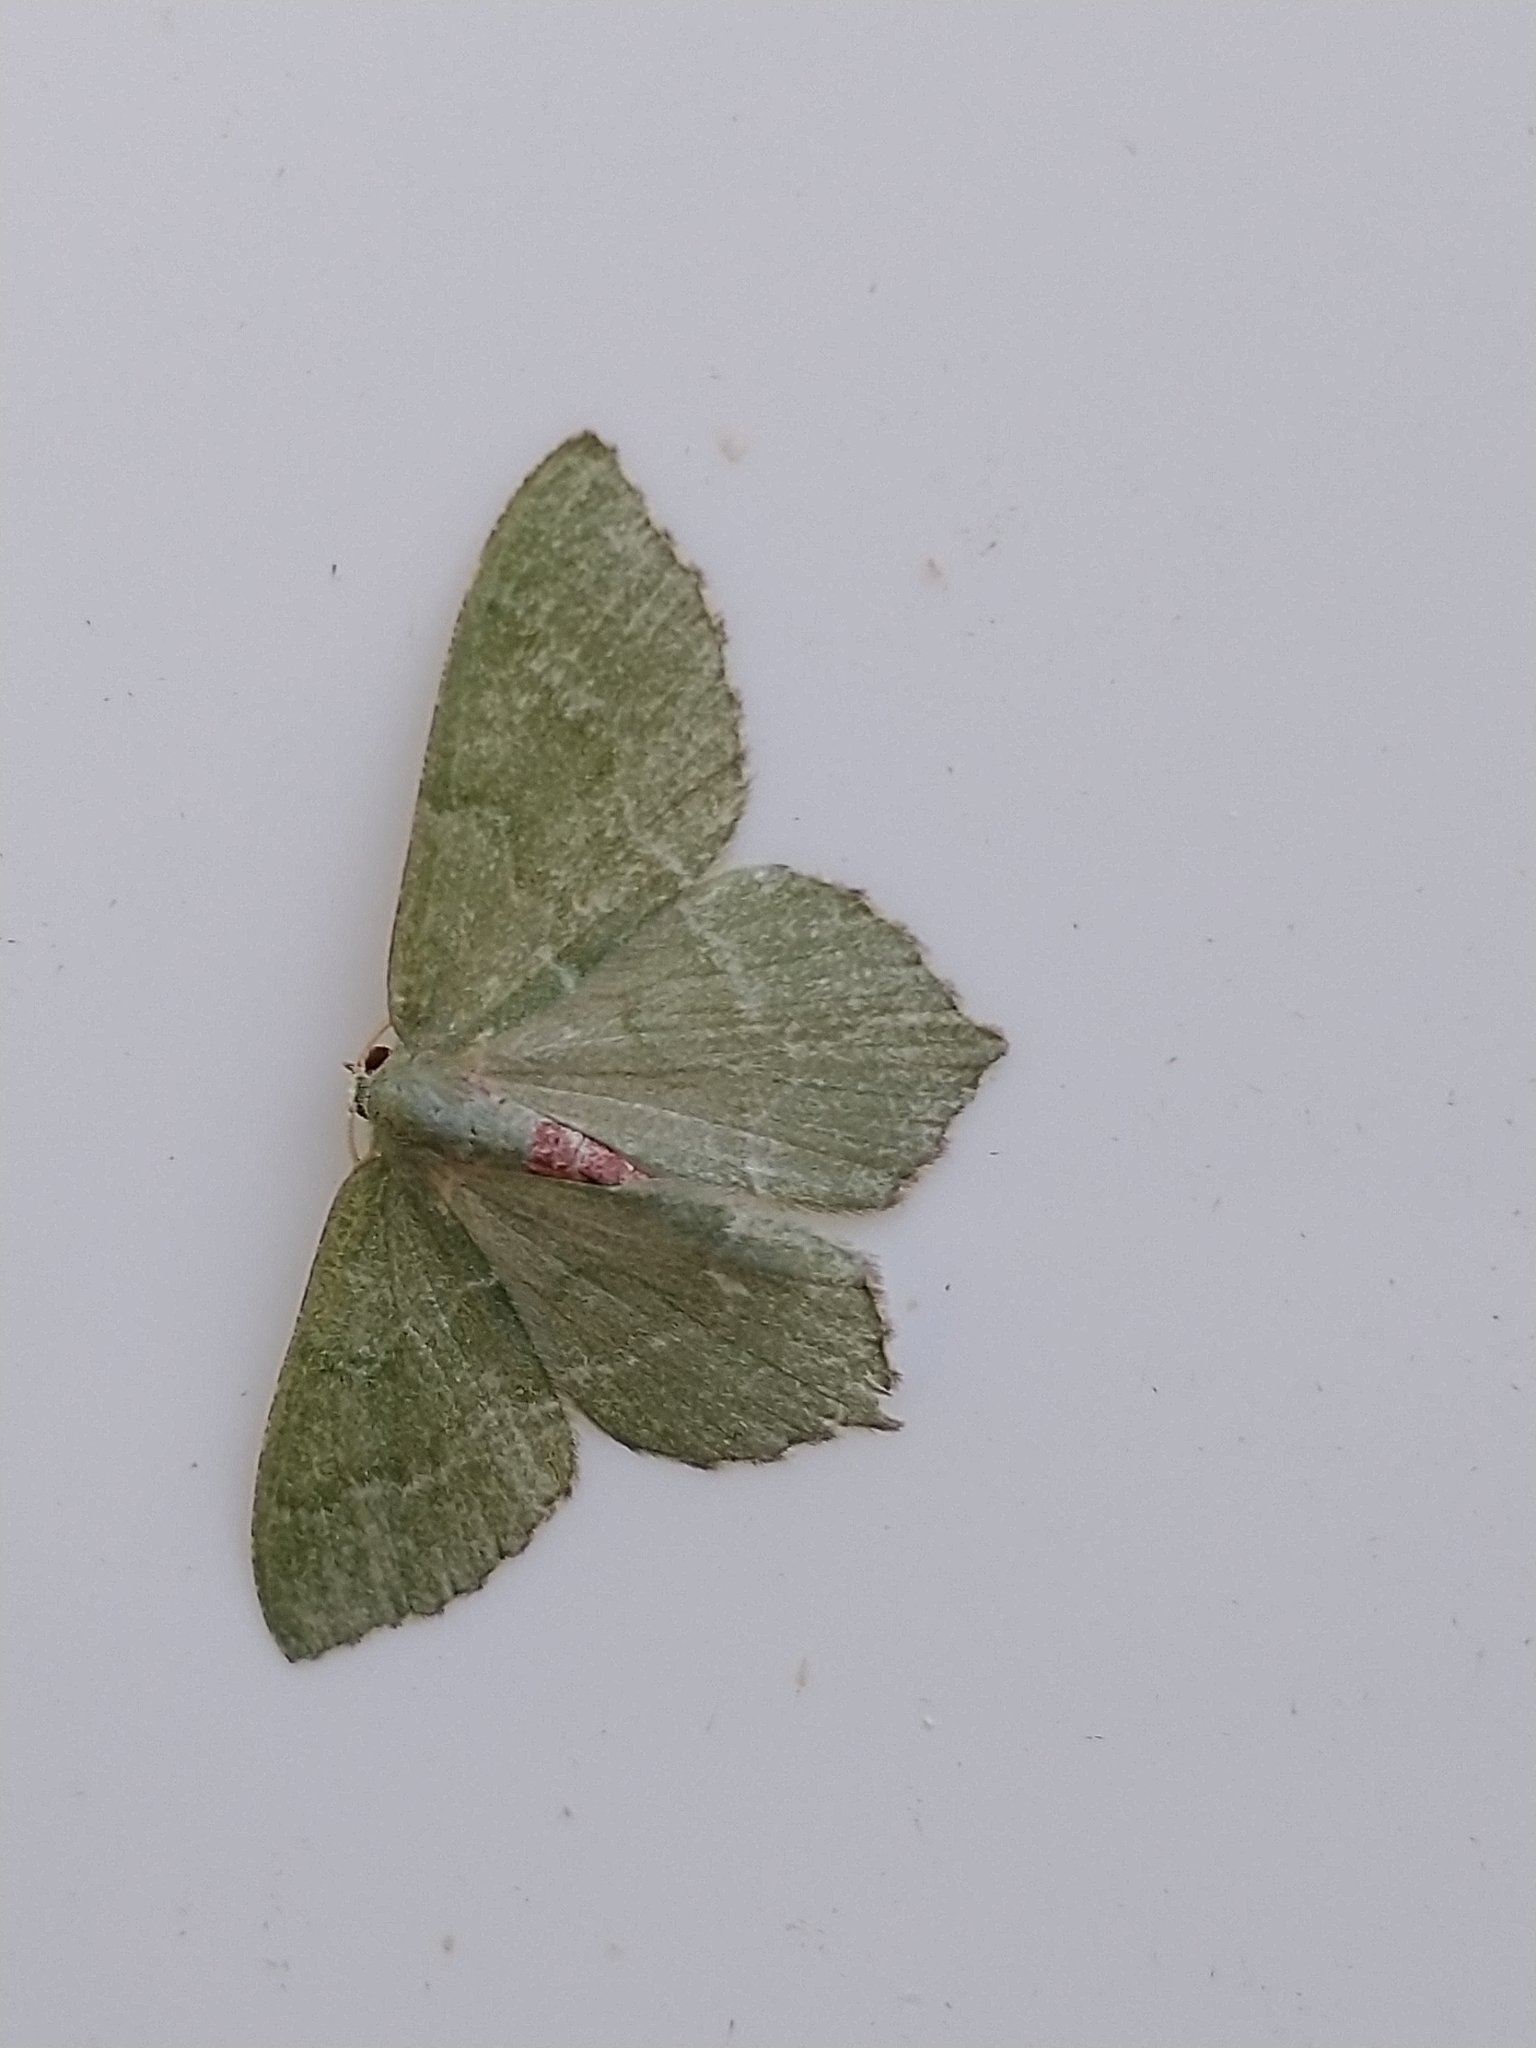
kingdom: Animalia
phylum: Arthropoda
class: Insecta
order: Lepidoptera
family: Geometridae
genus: Hemithea
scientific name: Hemithea aestivaria
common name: Common emerald
